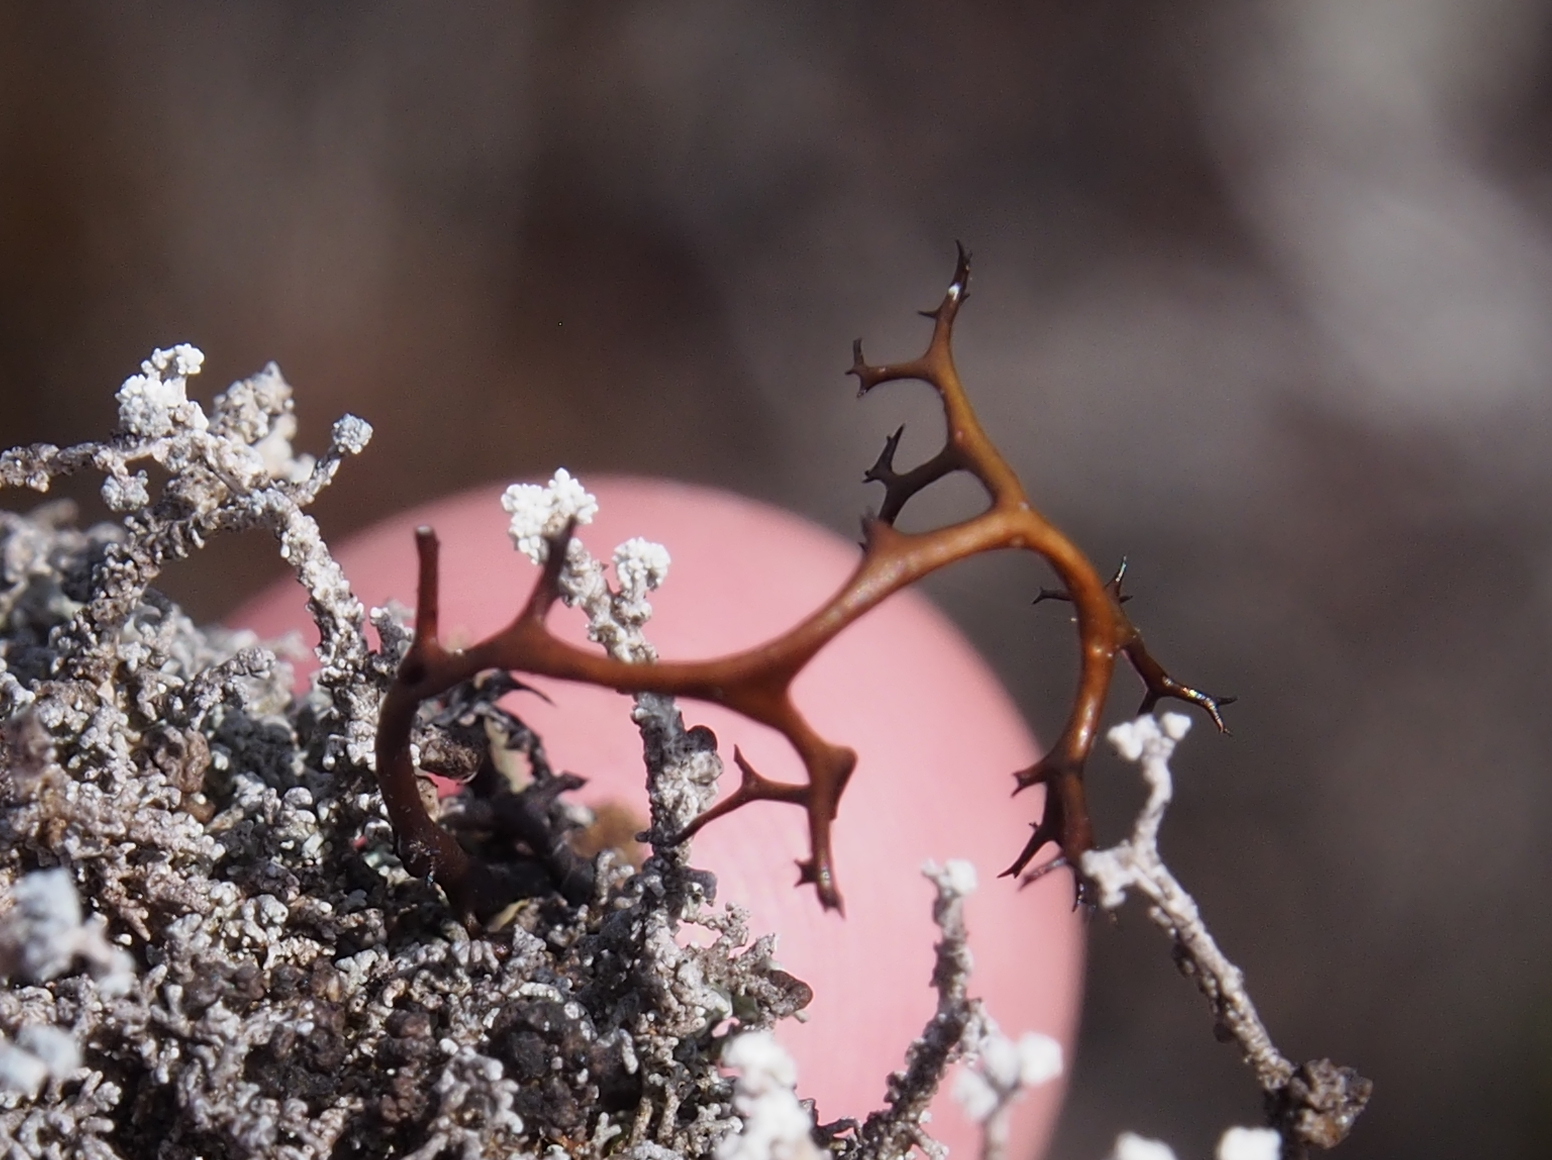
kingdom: Fungi
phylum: Ascomycota
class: Lecanoromycetes
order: Lecanorales
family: Parmeliaceae
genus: Cetraria
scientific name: Cetraria aculeata
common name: Spiny heath lichen
